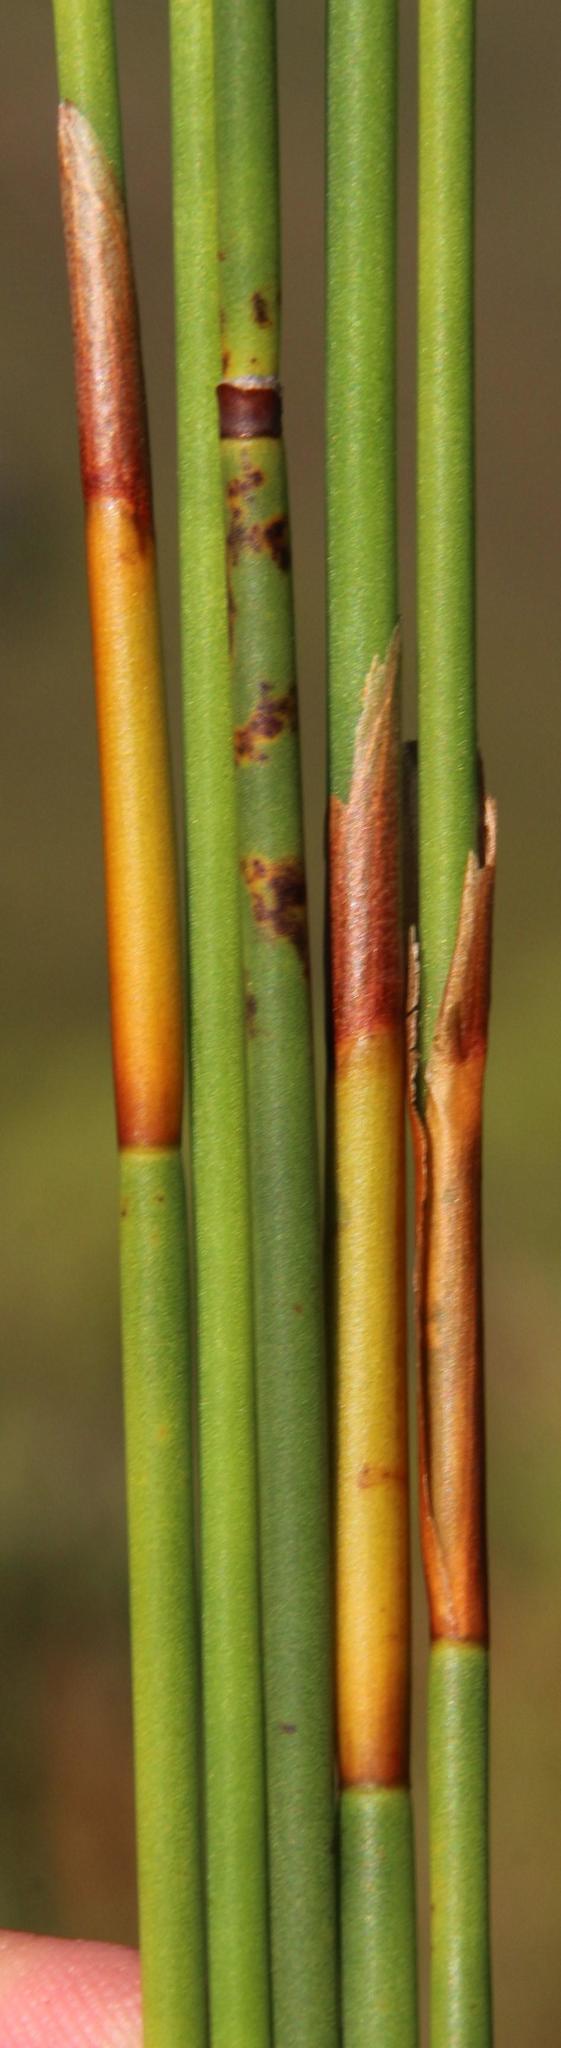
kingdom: Plantae
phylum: Tracheophyta
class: Liliopsida
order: Poales
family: Restionaceae
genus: Elegia
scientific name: Elegia equisetacea
